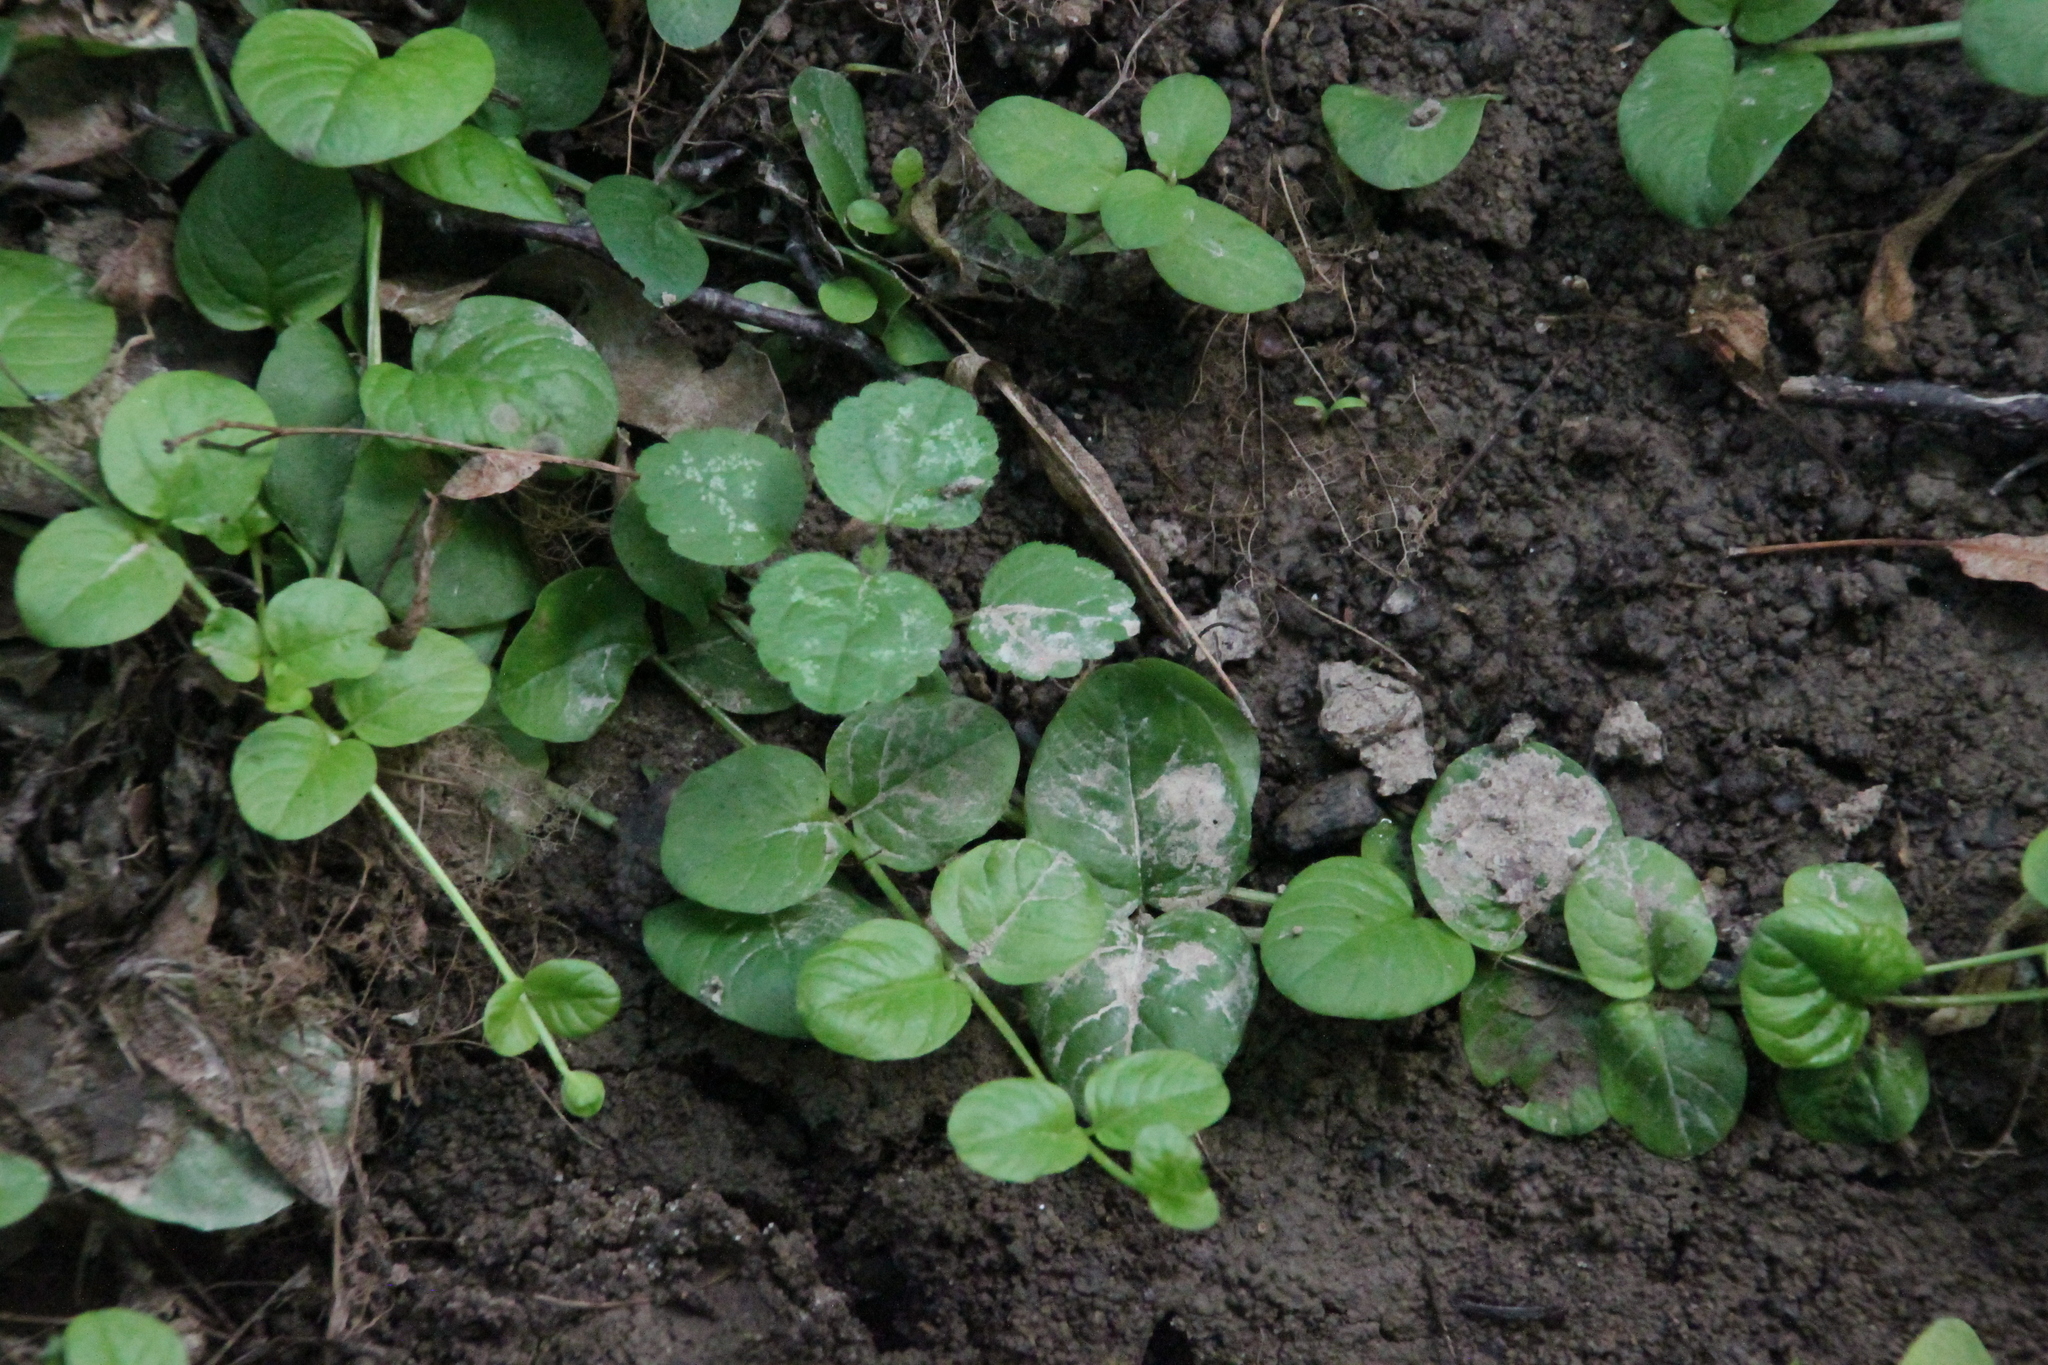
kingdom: Plantae
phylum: Tracheophyta
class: Magnoliopsida
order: Ericales
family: Primulaceae
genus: Lysimachia
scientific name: Lysimachia nummularia
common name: Moneywort
